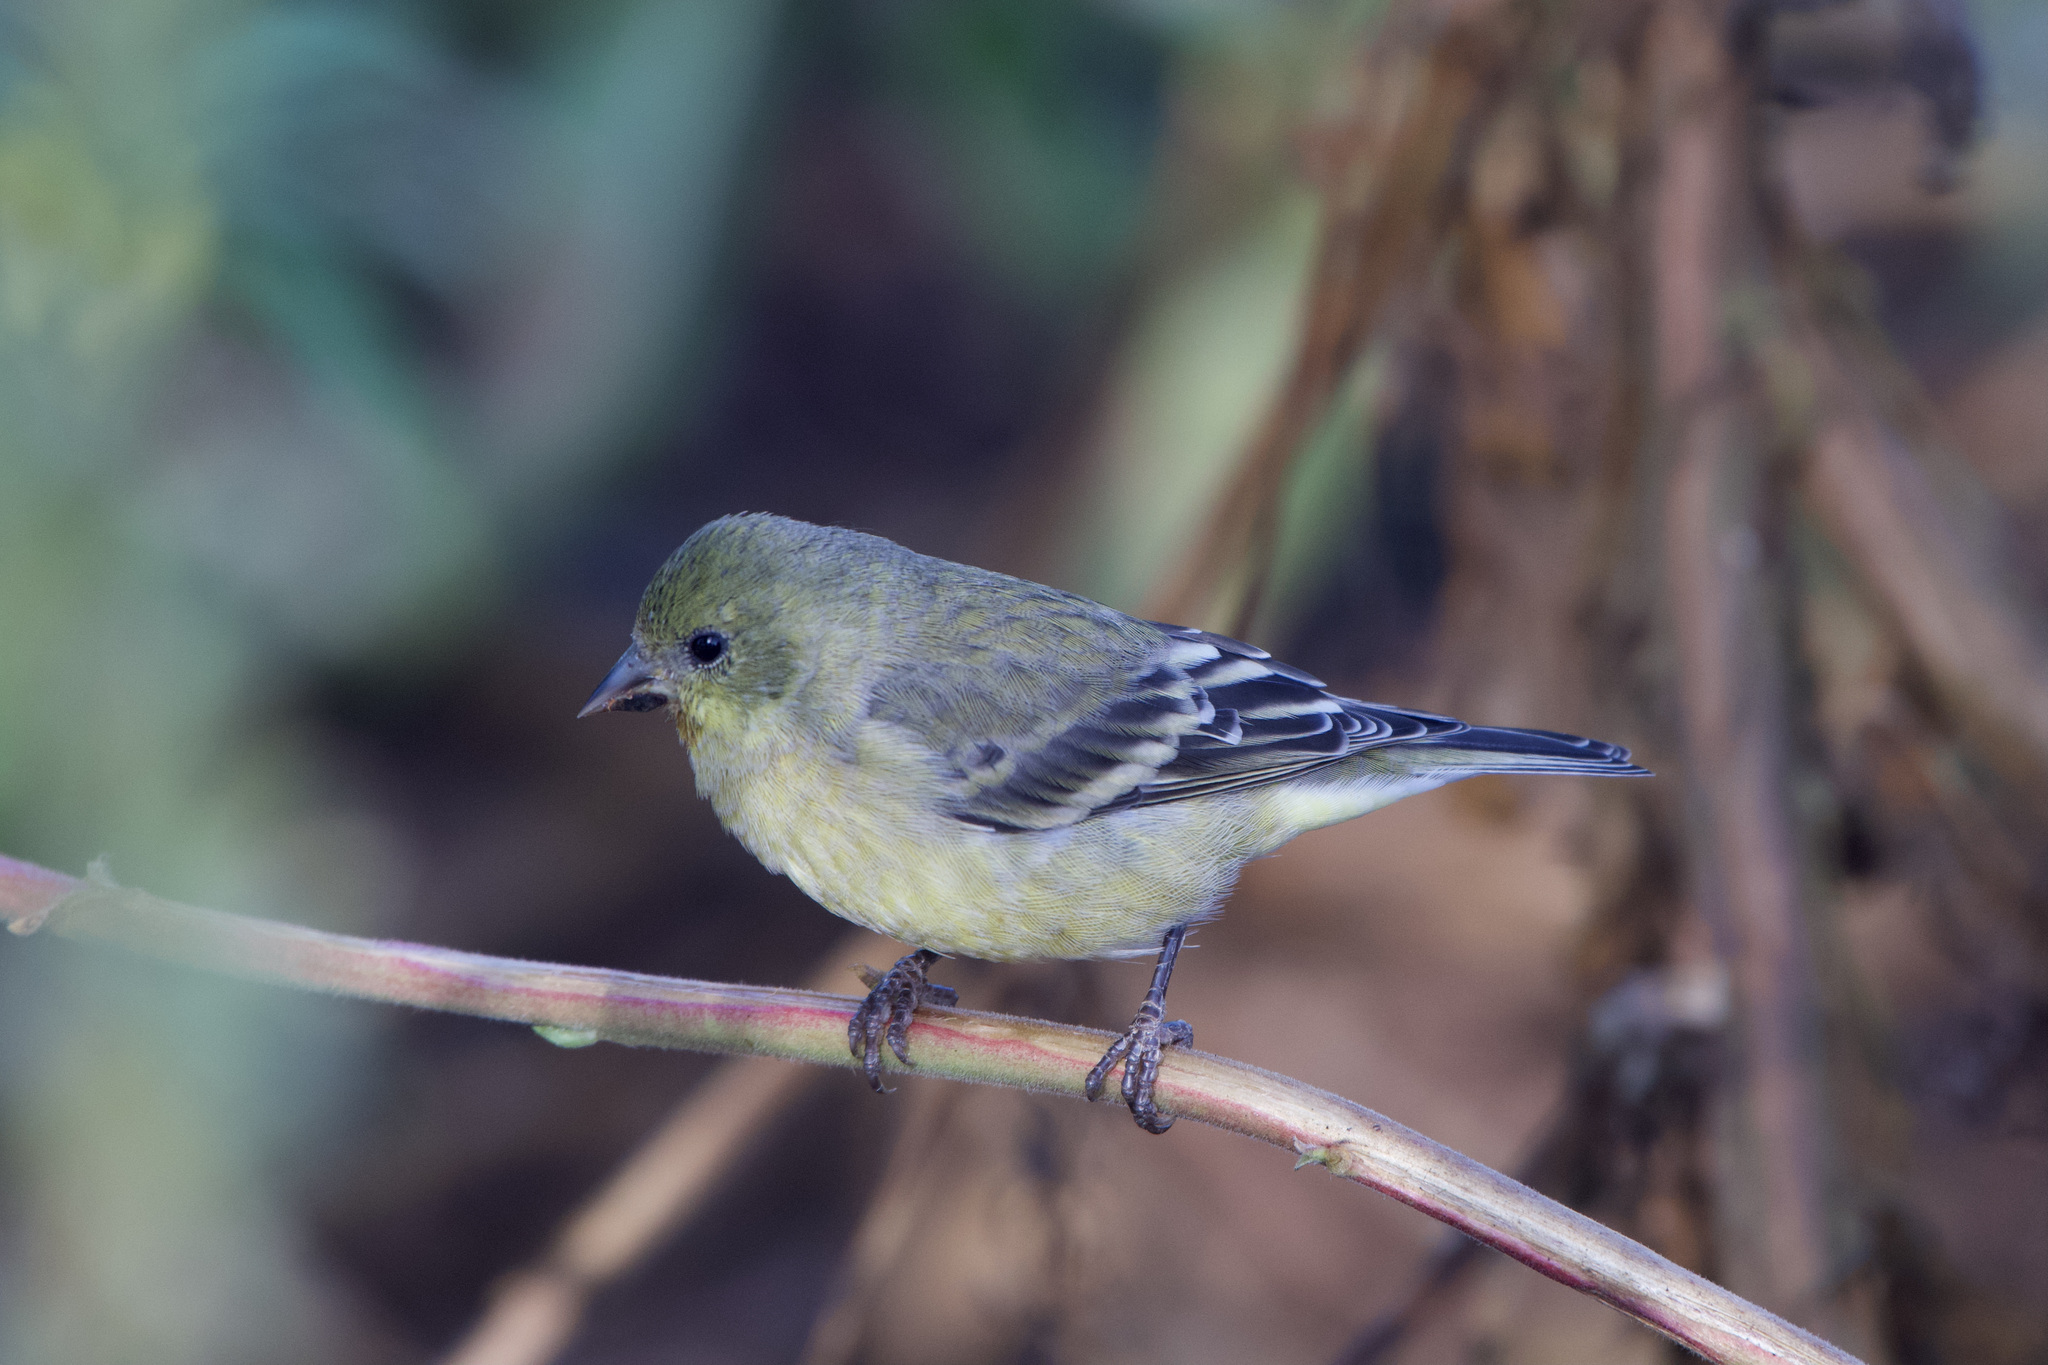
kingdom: Animalia
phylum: Chordata
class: Aves
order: Passeriformes
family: Fringillidae
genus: Spinus
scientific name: Spinus psaltria
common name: Lesser goldfinch
